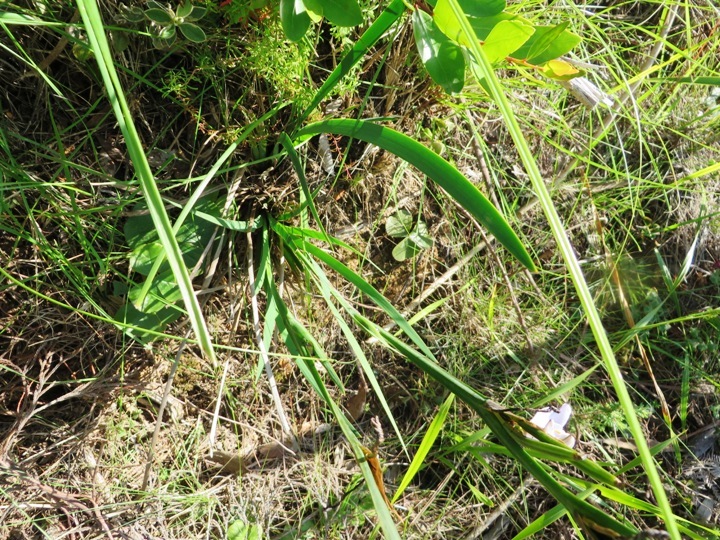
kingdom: Plantae
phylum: Tracheophyta
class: Liliopsida
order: Asparagales
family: Iridaceae
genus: Aristea
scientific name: Aristea spiralis
